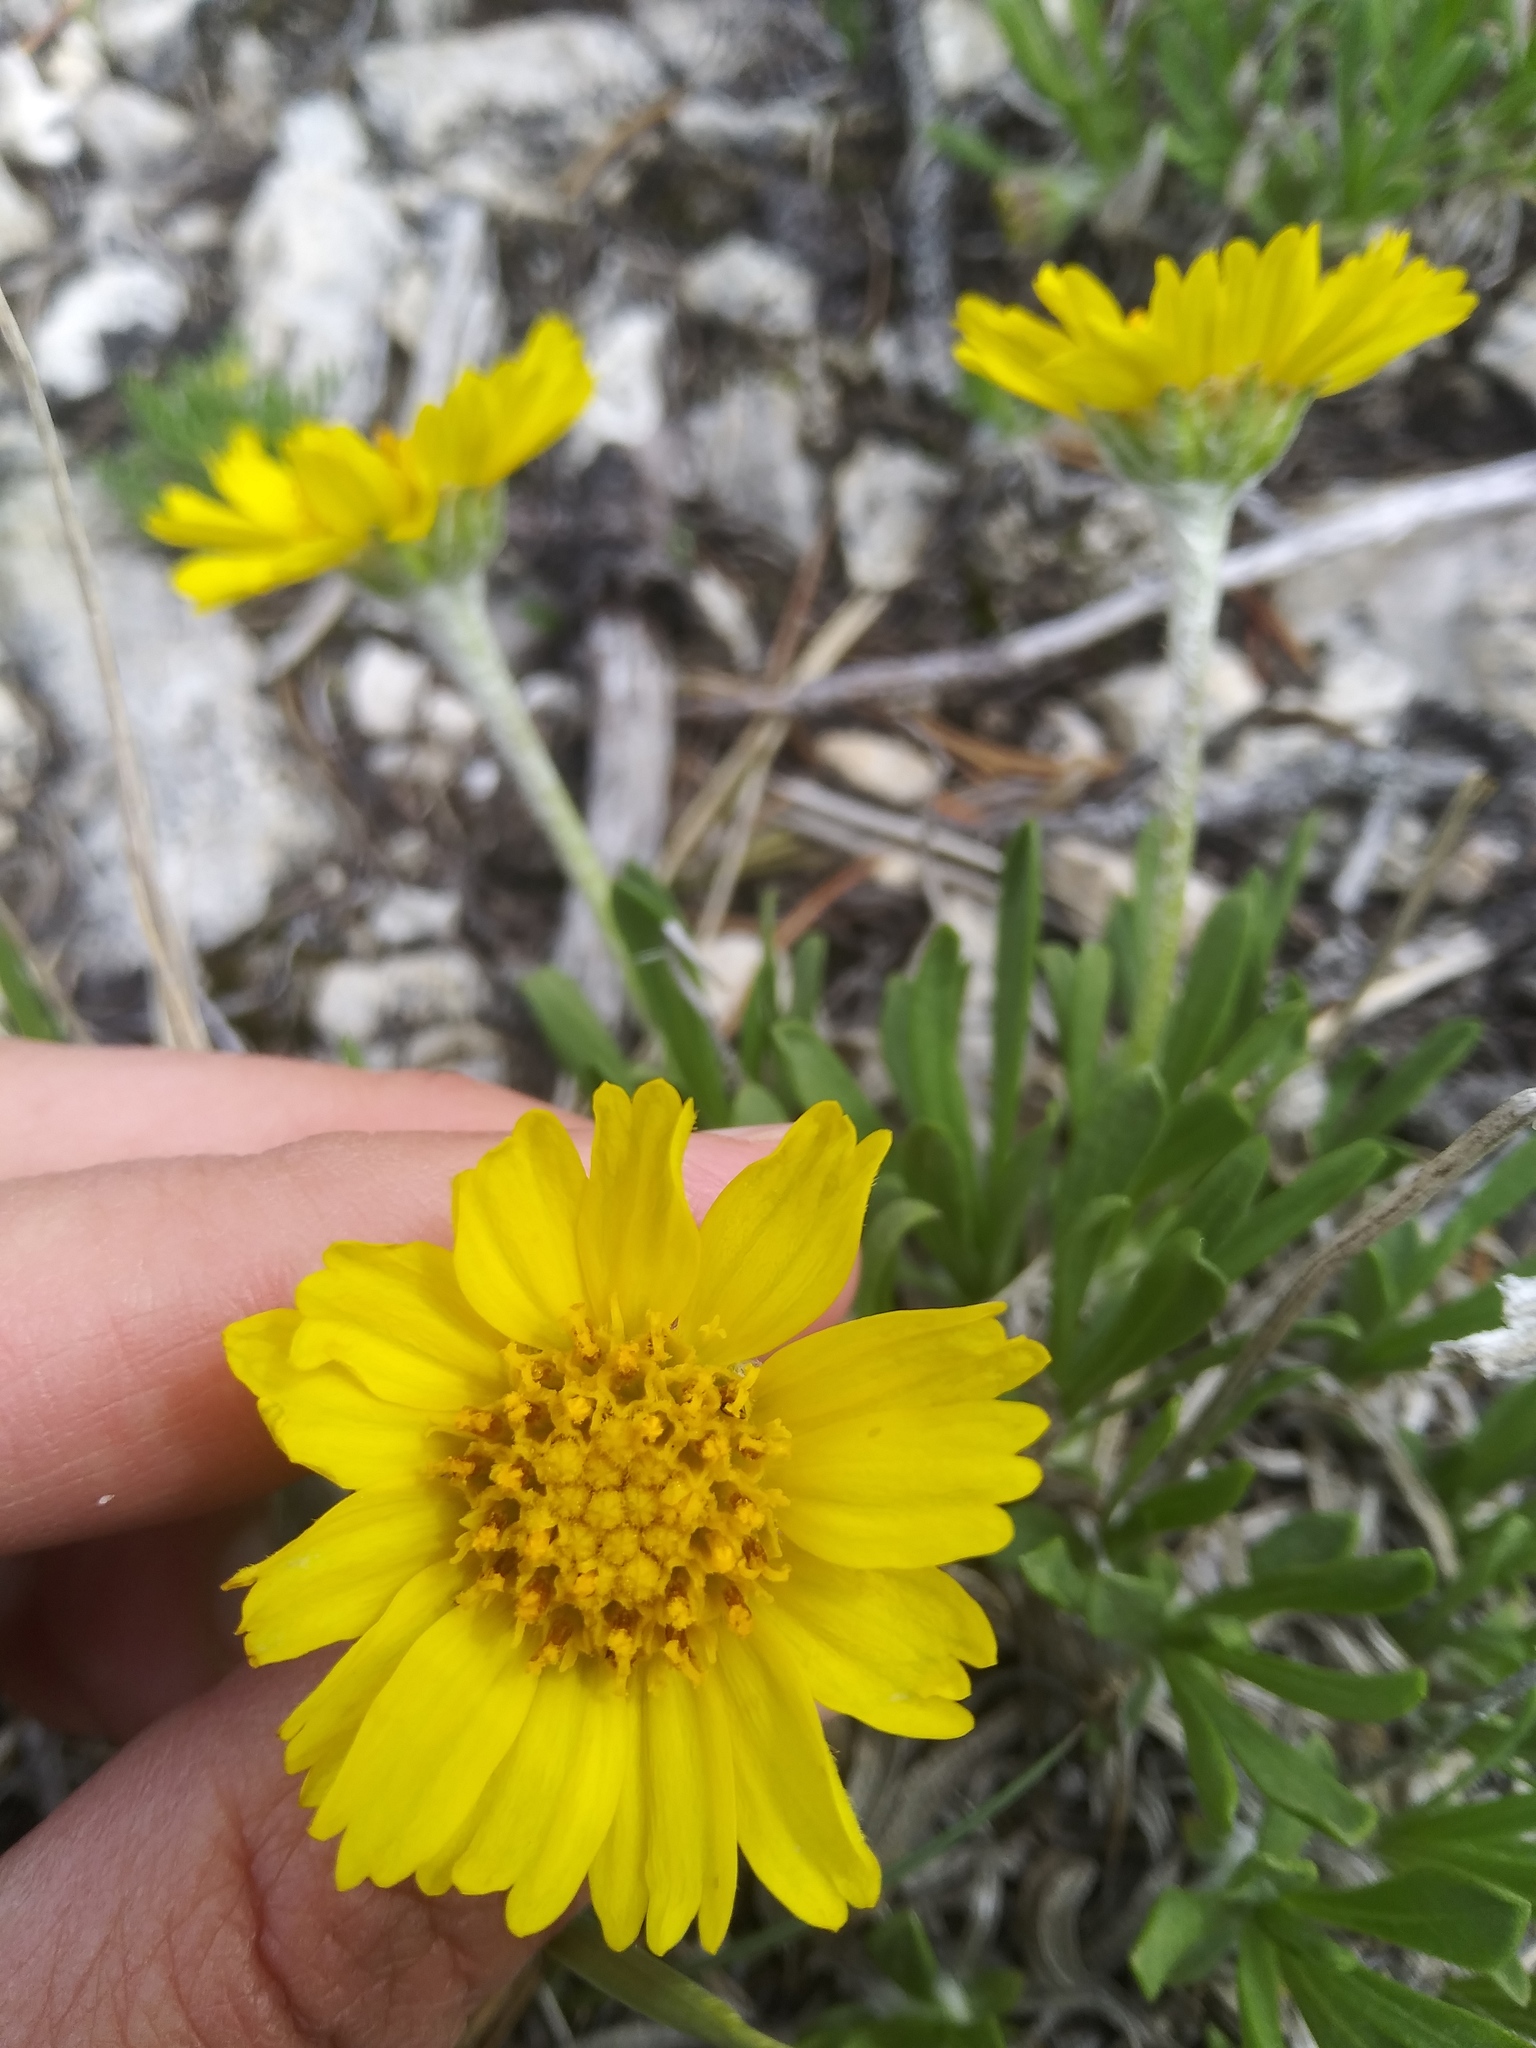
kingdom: Plantae
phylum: Tracheophyta
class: Magnoliopsida
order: Asterales
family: Asteraceae
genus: Tetraneuris
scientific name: Tetraneuris torreyana
